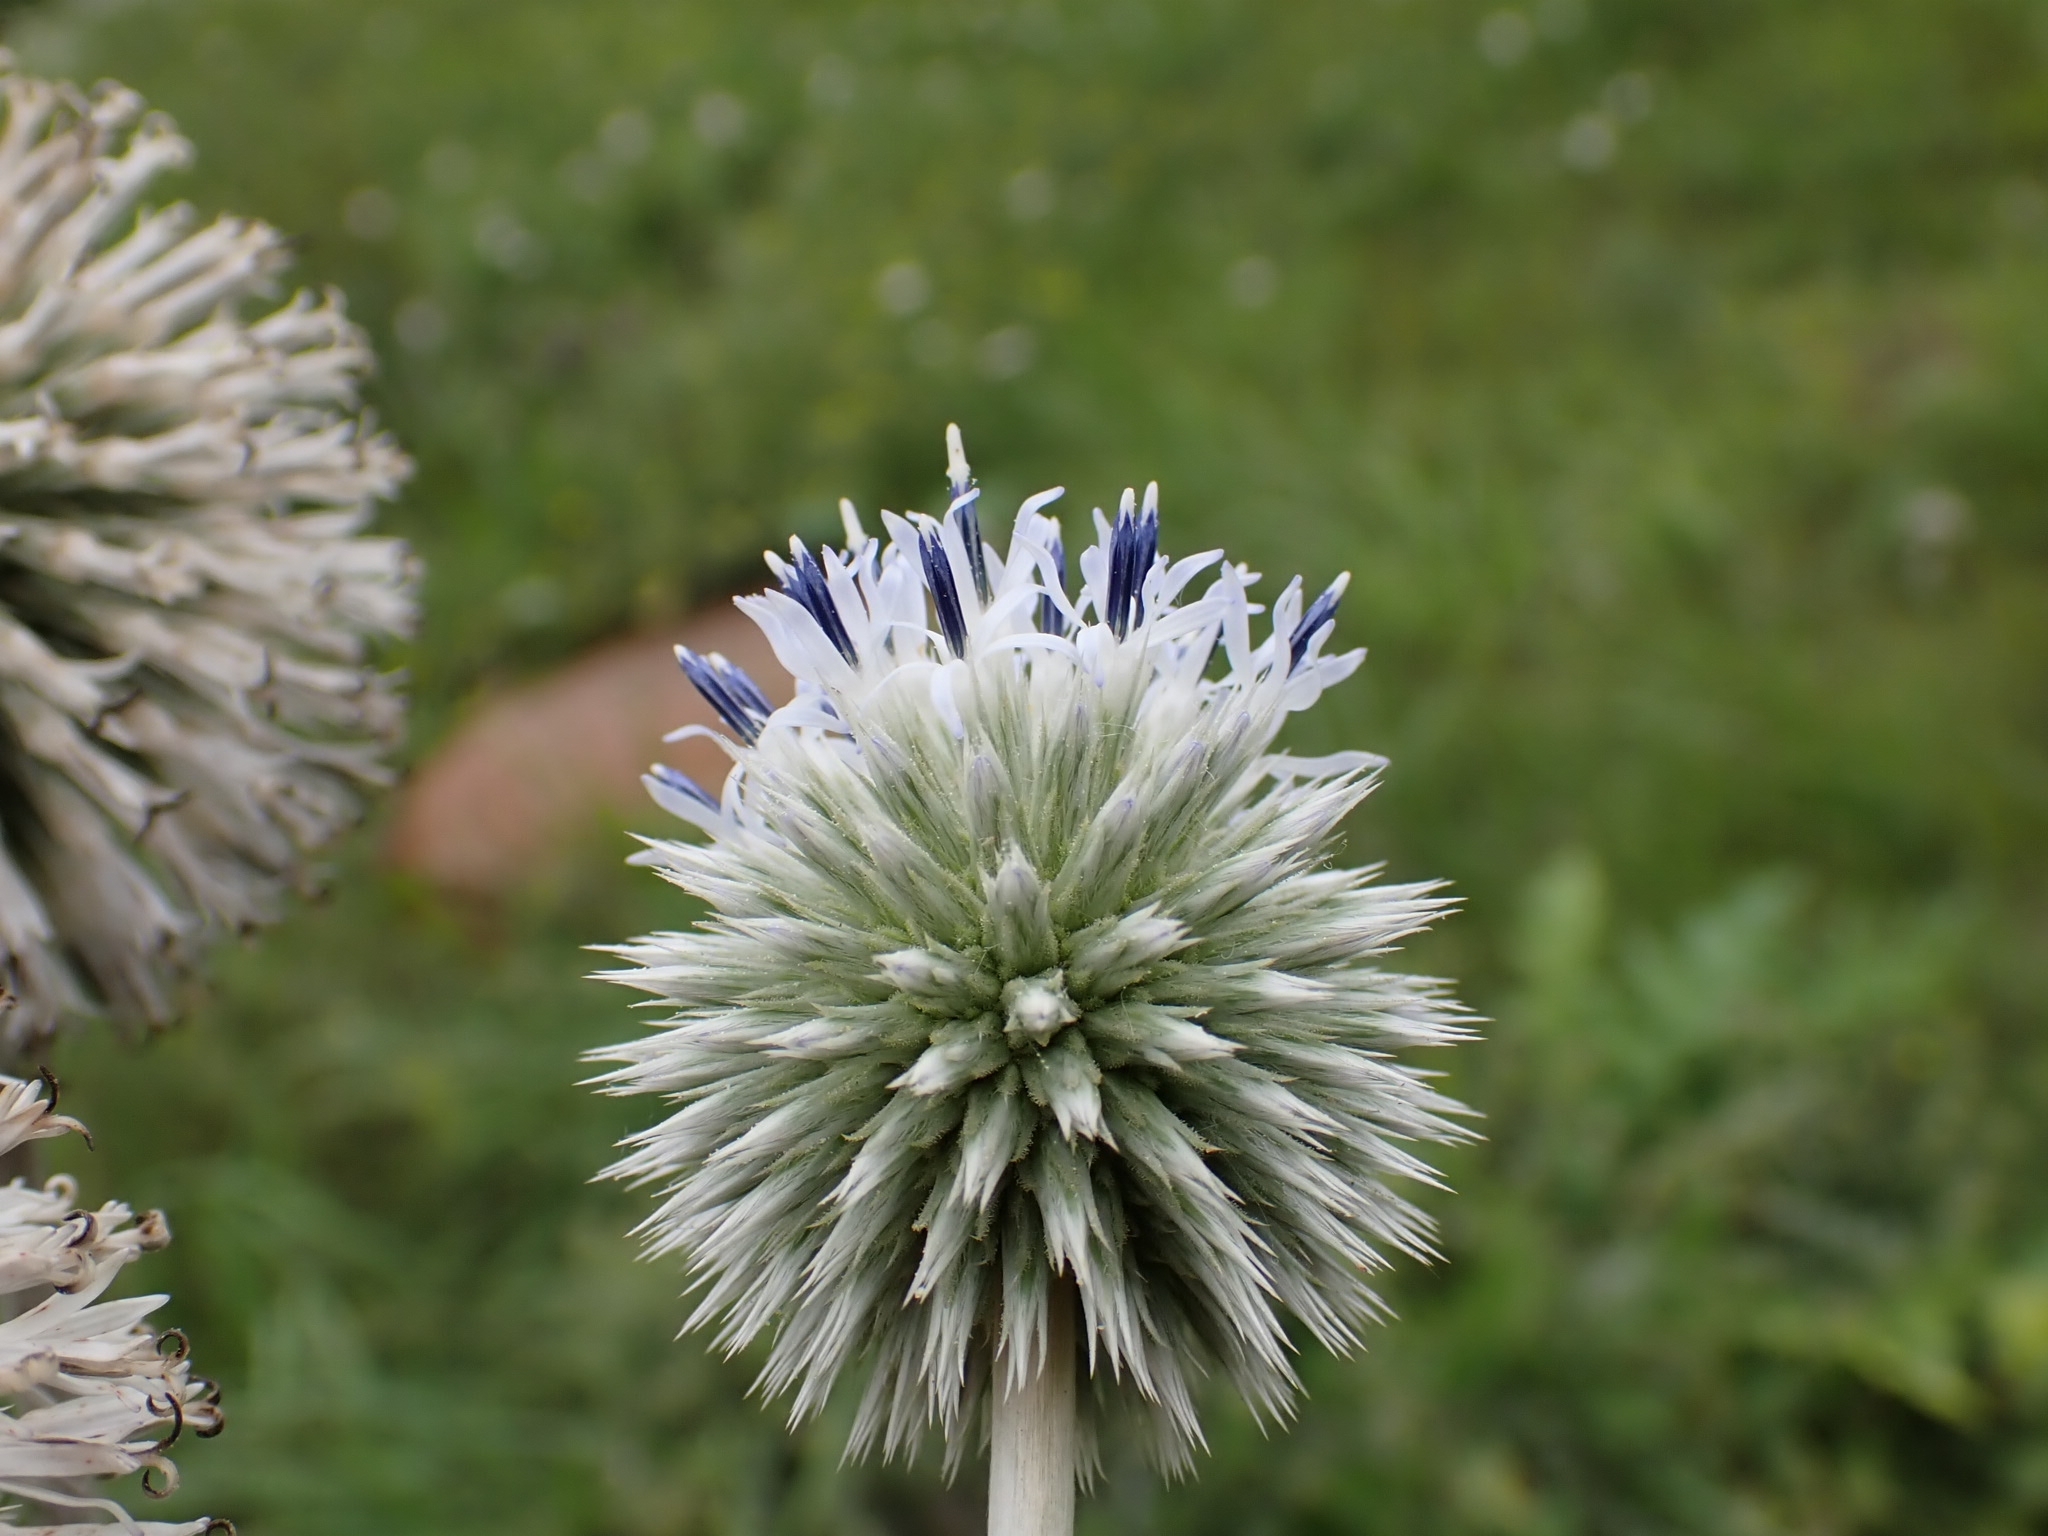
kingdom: Plantae
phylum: Tracheophyta
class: Magnoliopsida
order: Asterales
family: Asteraceae
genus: Echinops
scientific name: Echinops sphaerocephalus
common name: Glandular globe-thistle
